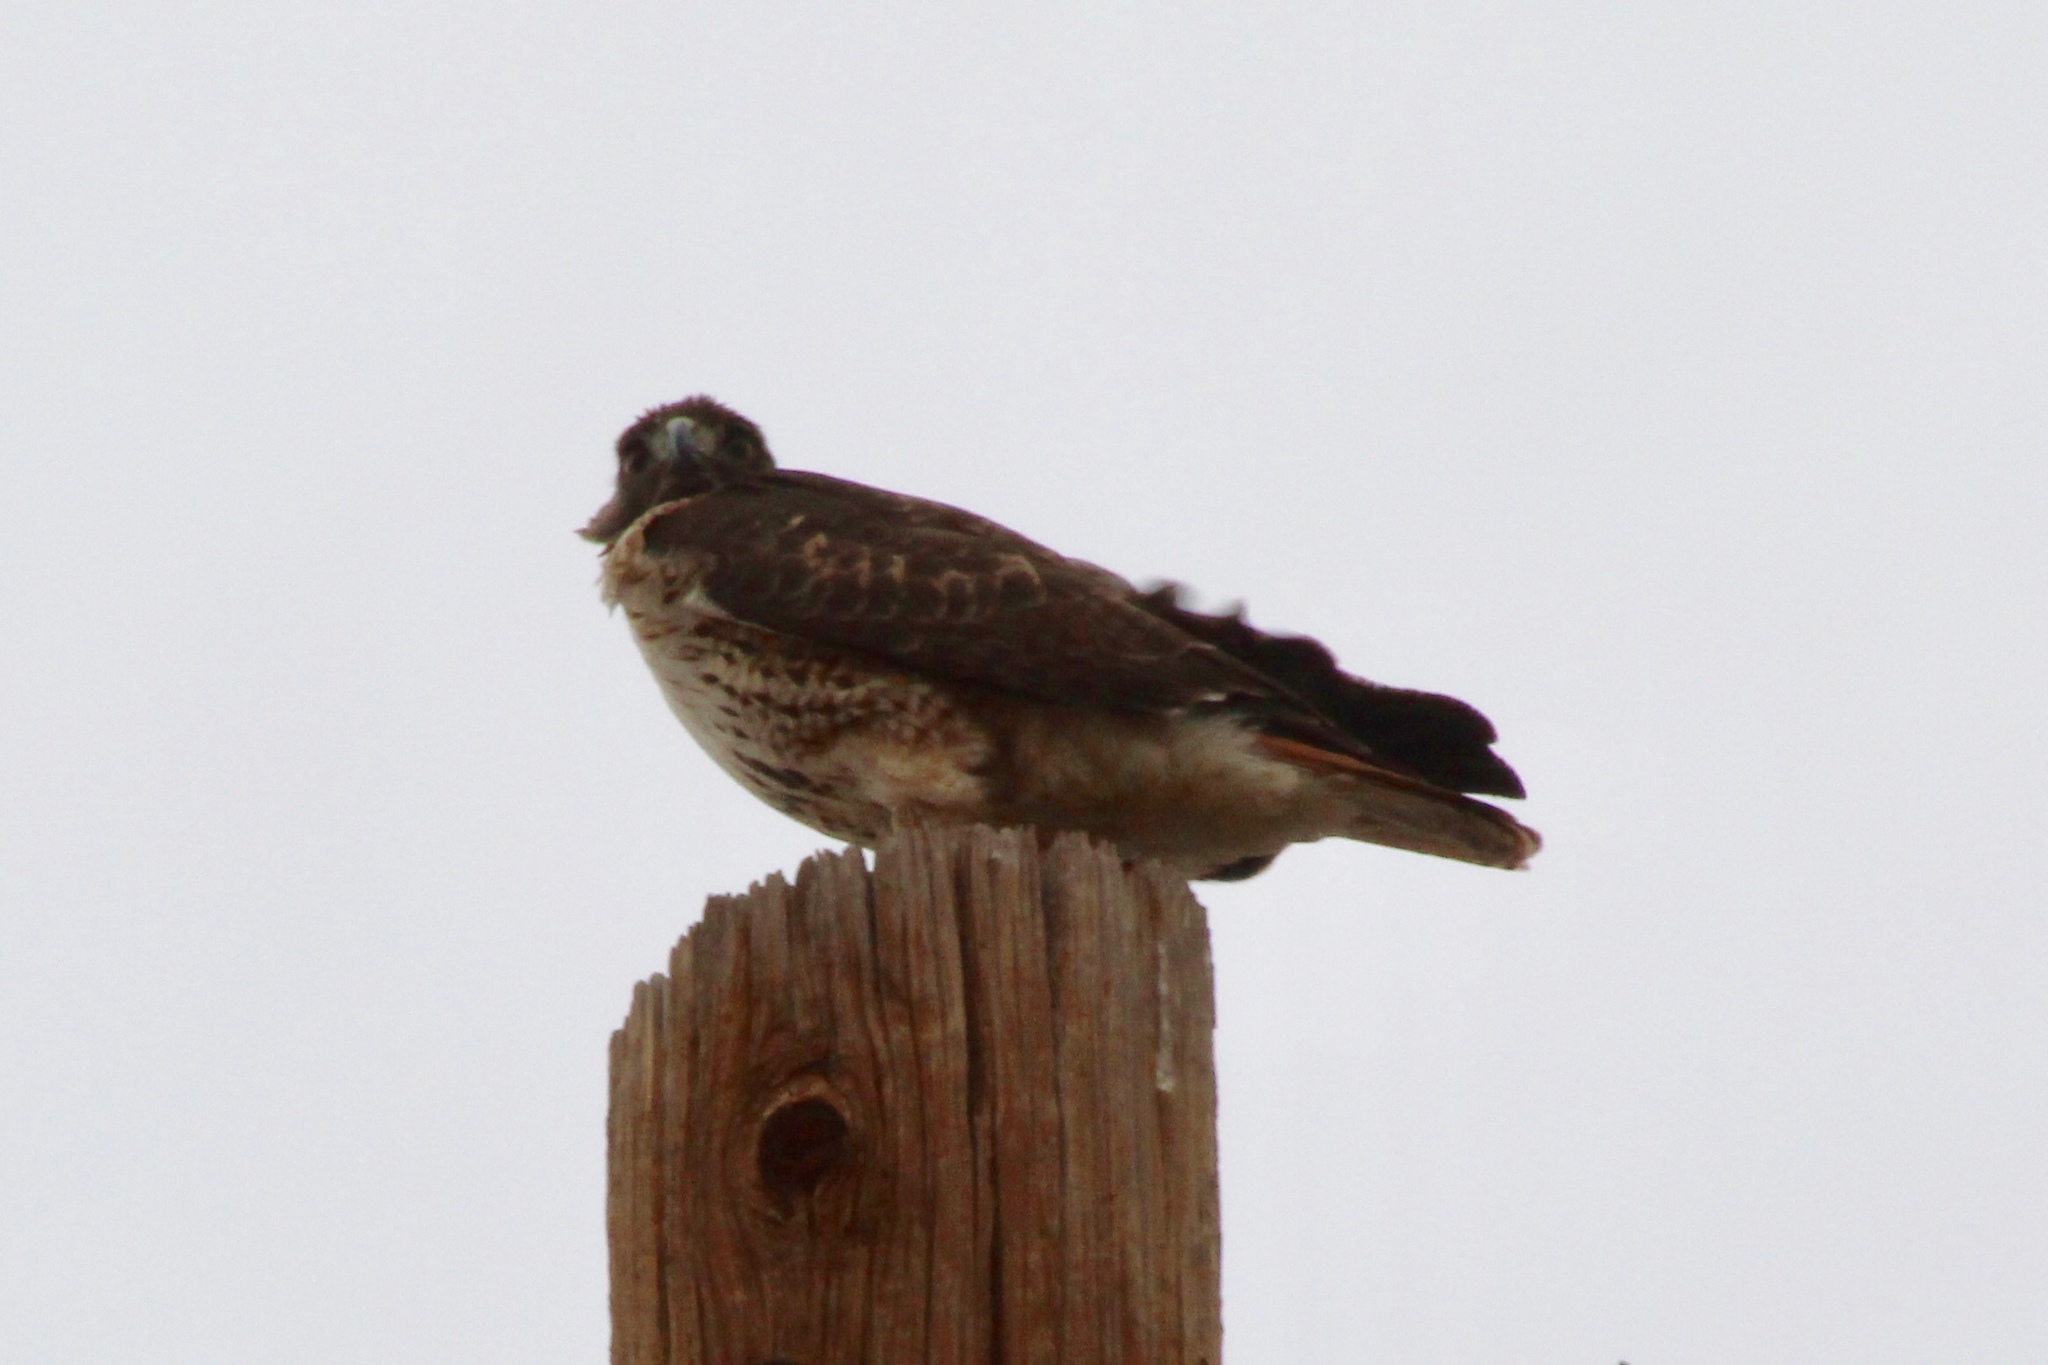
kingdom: Animalia
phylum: Chordata
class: Aves
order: Accipitriformes
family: Accipitridae
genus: Buteo
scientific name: Buteo jamaicensis
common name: Red-tailed hawk
